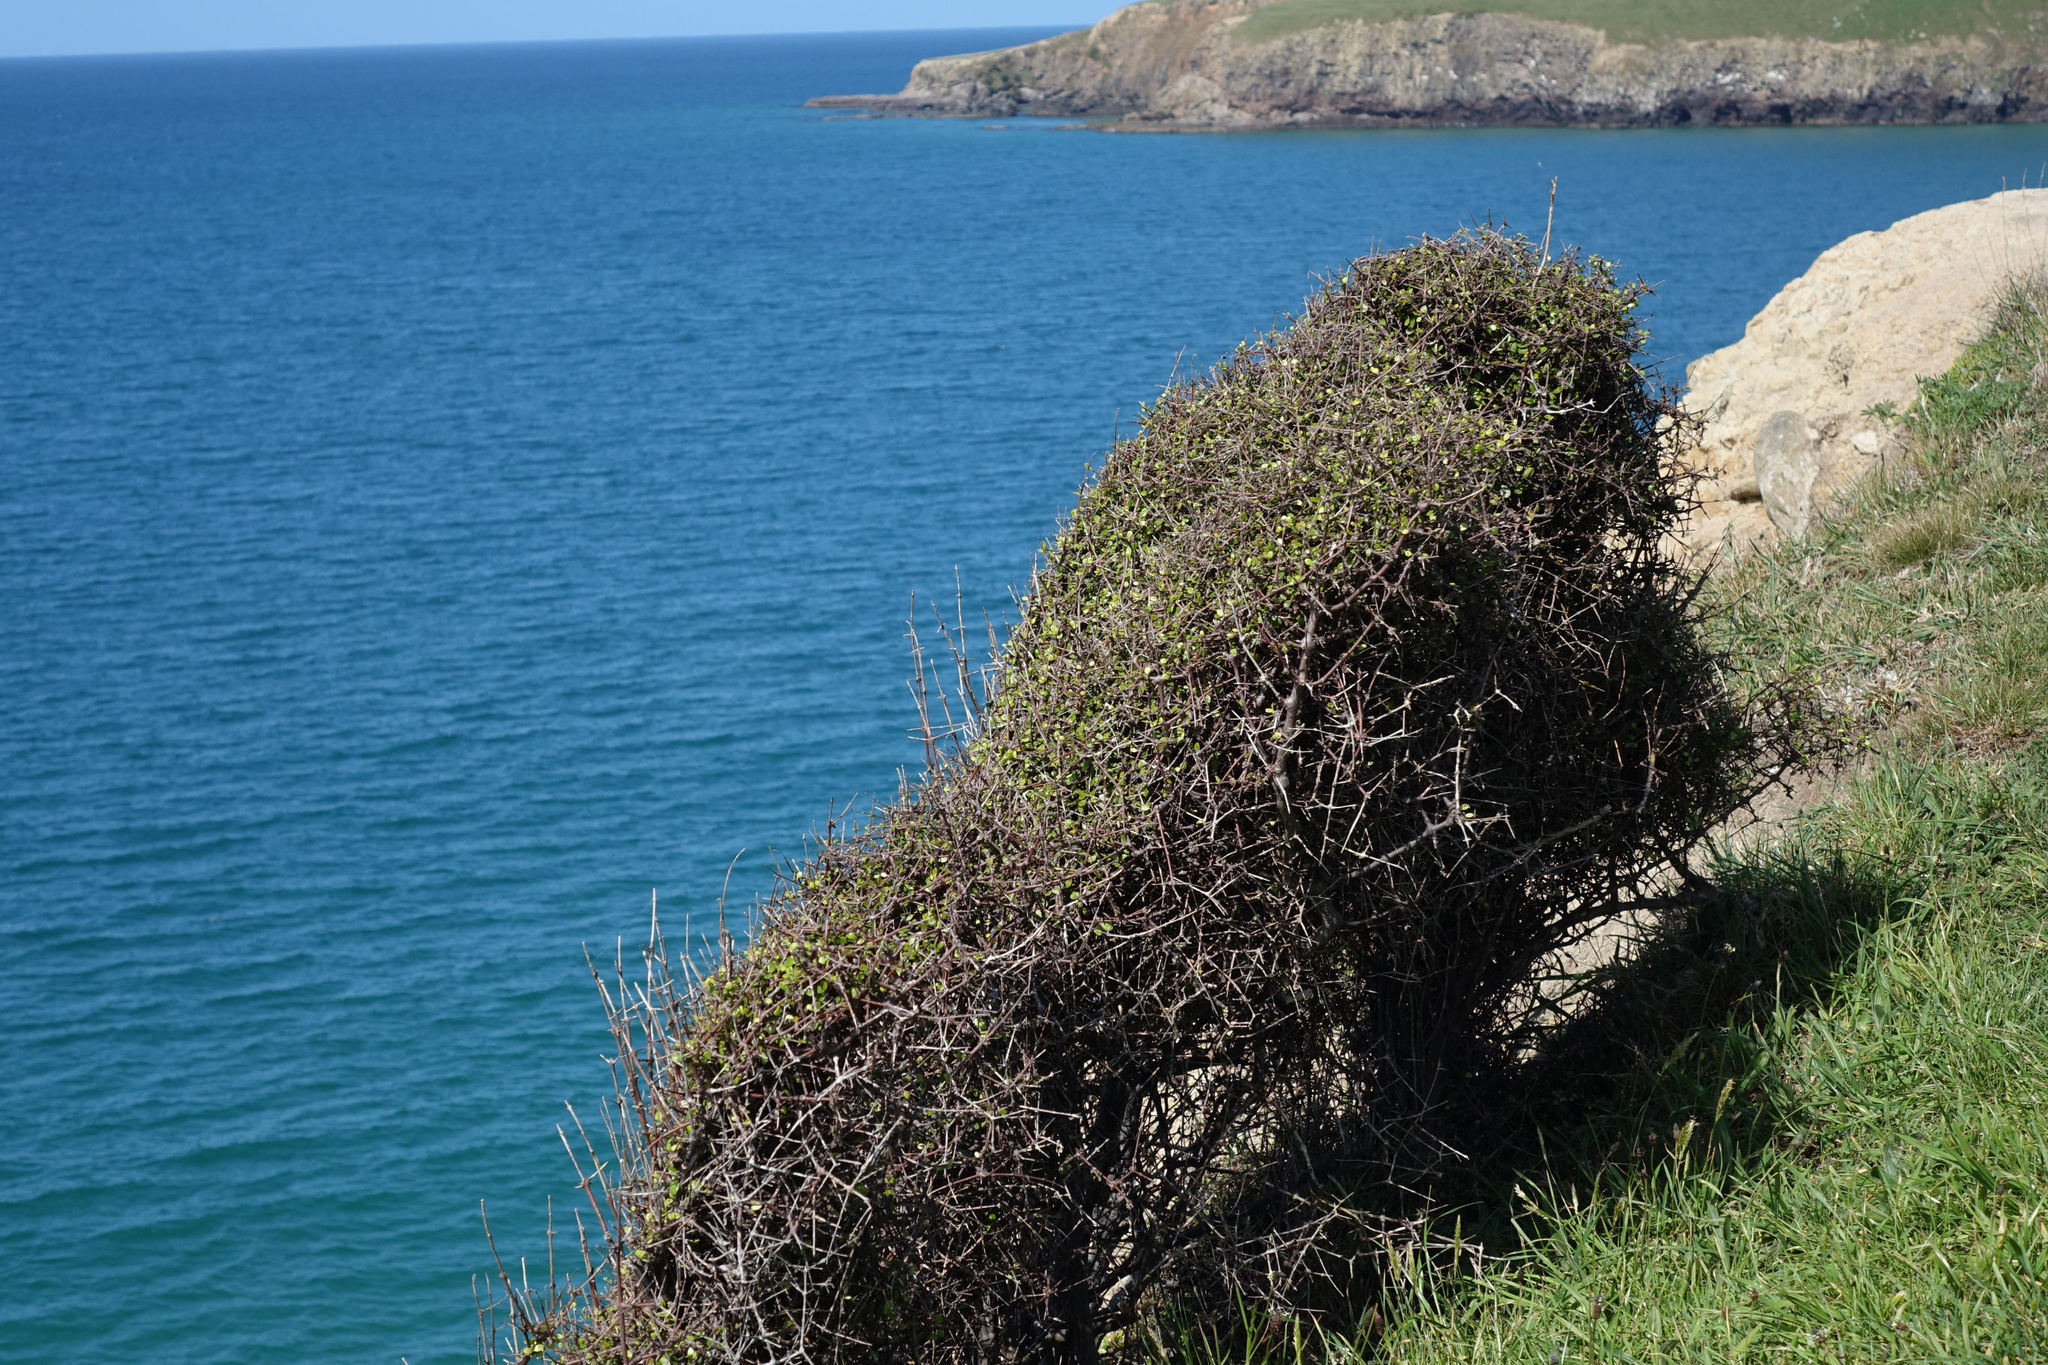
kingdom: Plantae
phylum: Tracheophyta
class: Magnoliopsida
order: Gentianales
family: Rubiaceae
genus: Coprosma
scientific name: Coprosma crassifolia
